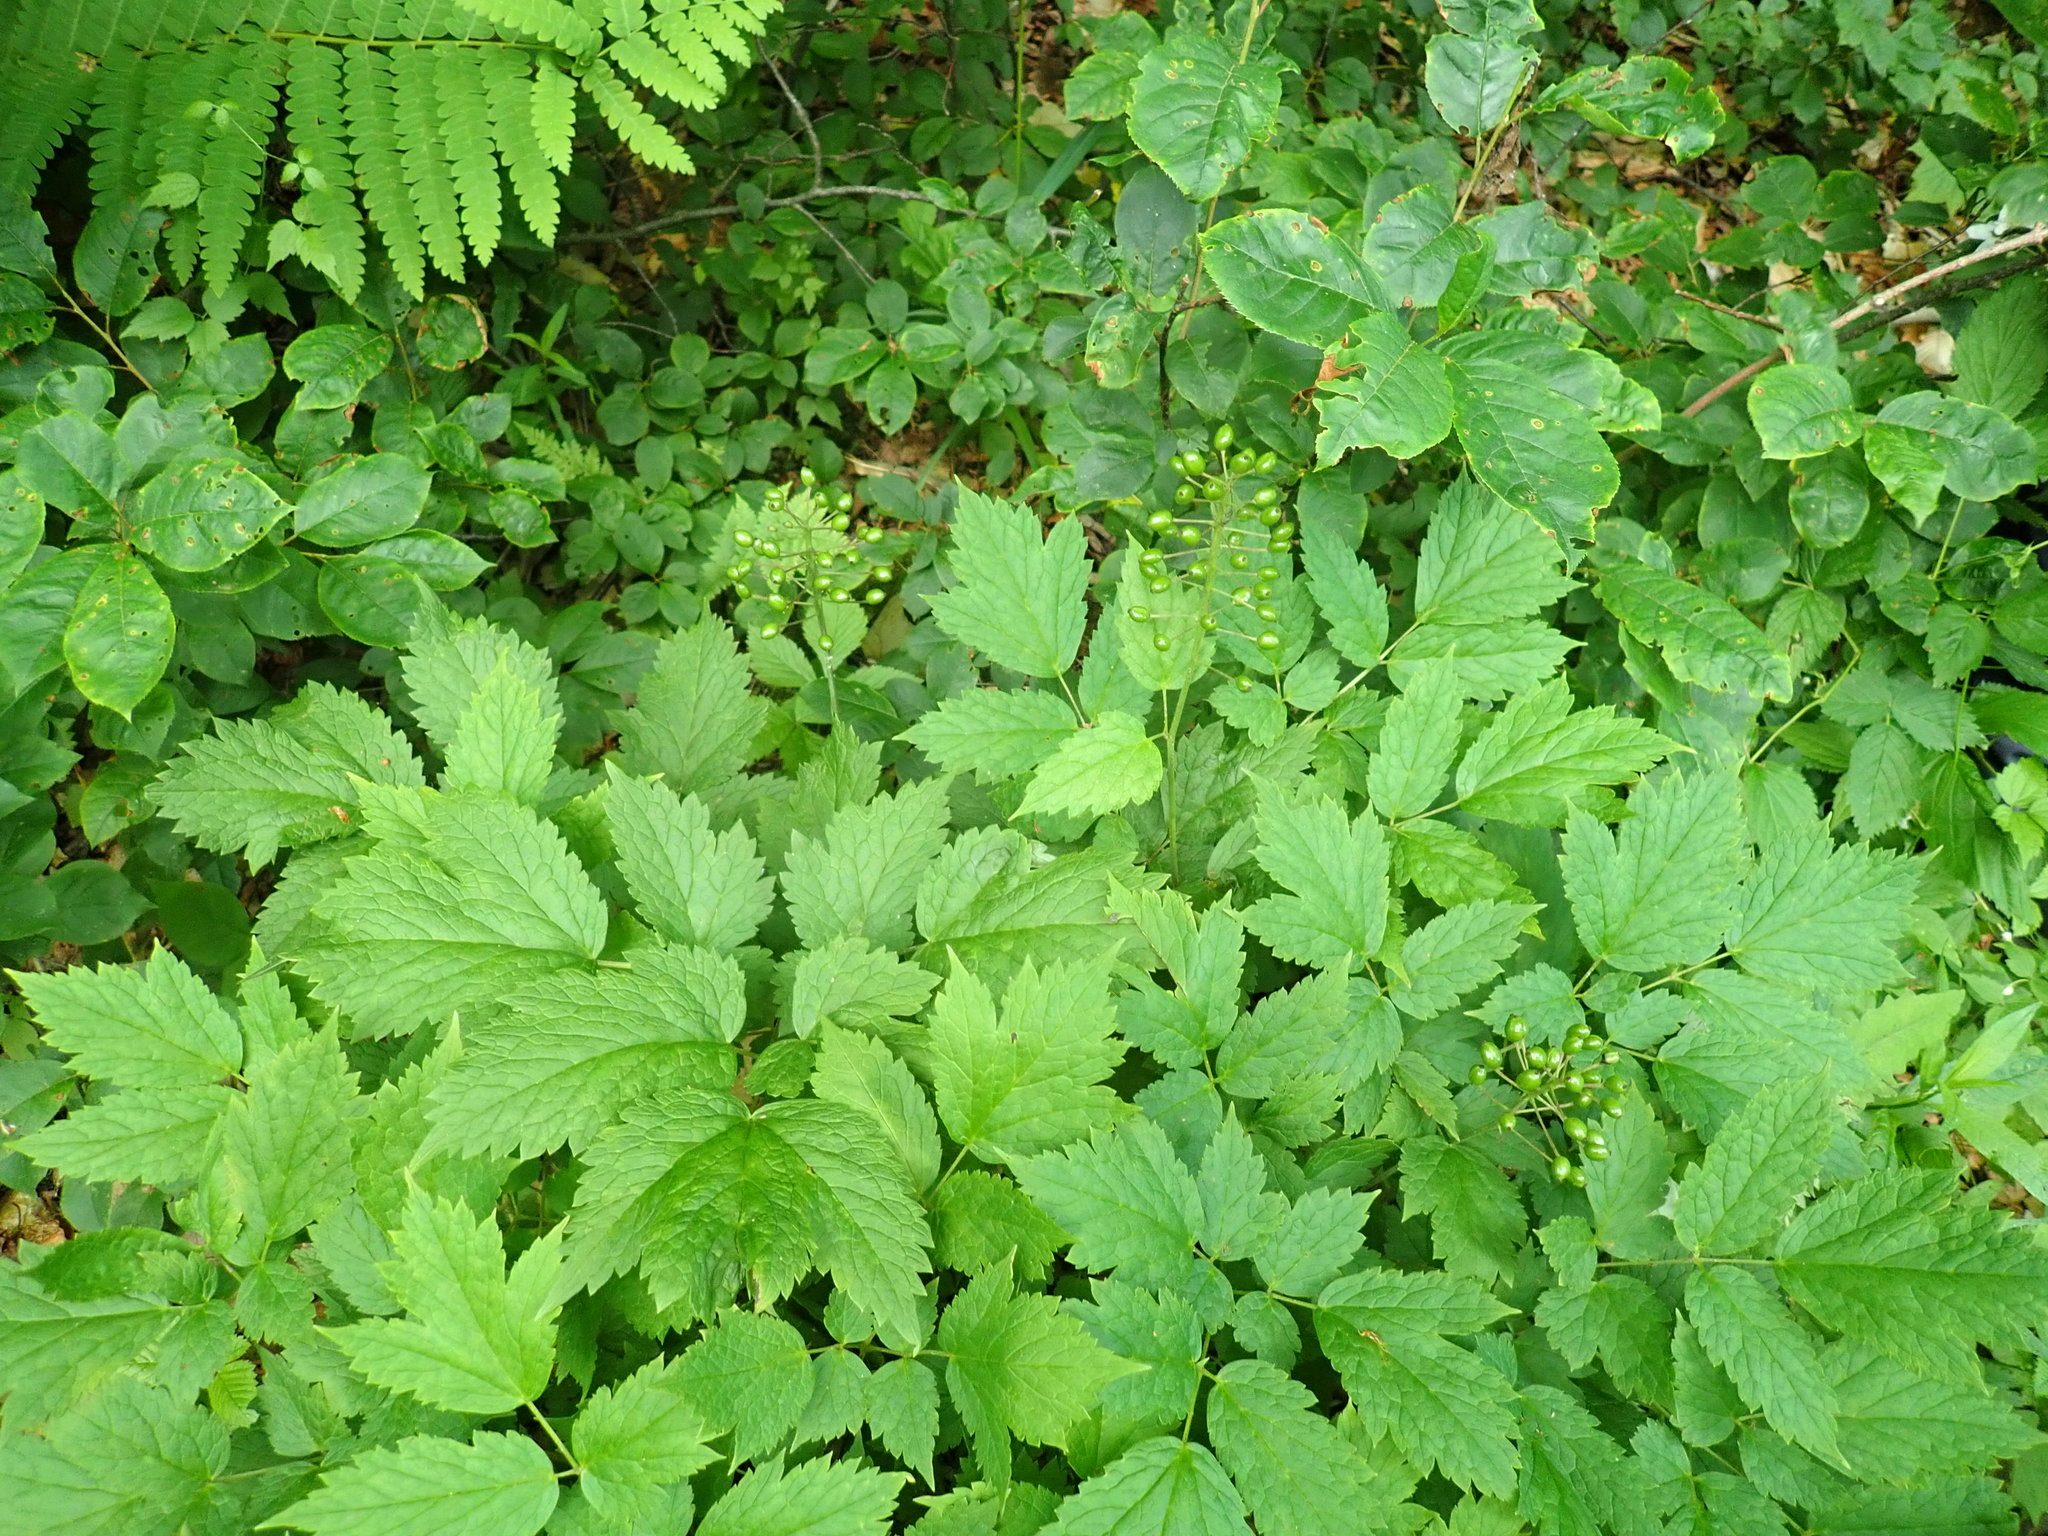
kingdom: Plantae
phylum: Tracheophyta
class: Magnoliopsida
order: Ranunculales
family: Ranunculaceae
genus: Actaea
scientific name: Actaea rubra
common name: Red baneberry
